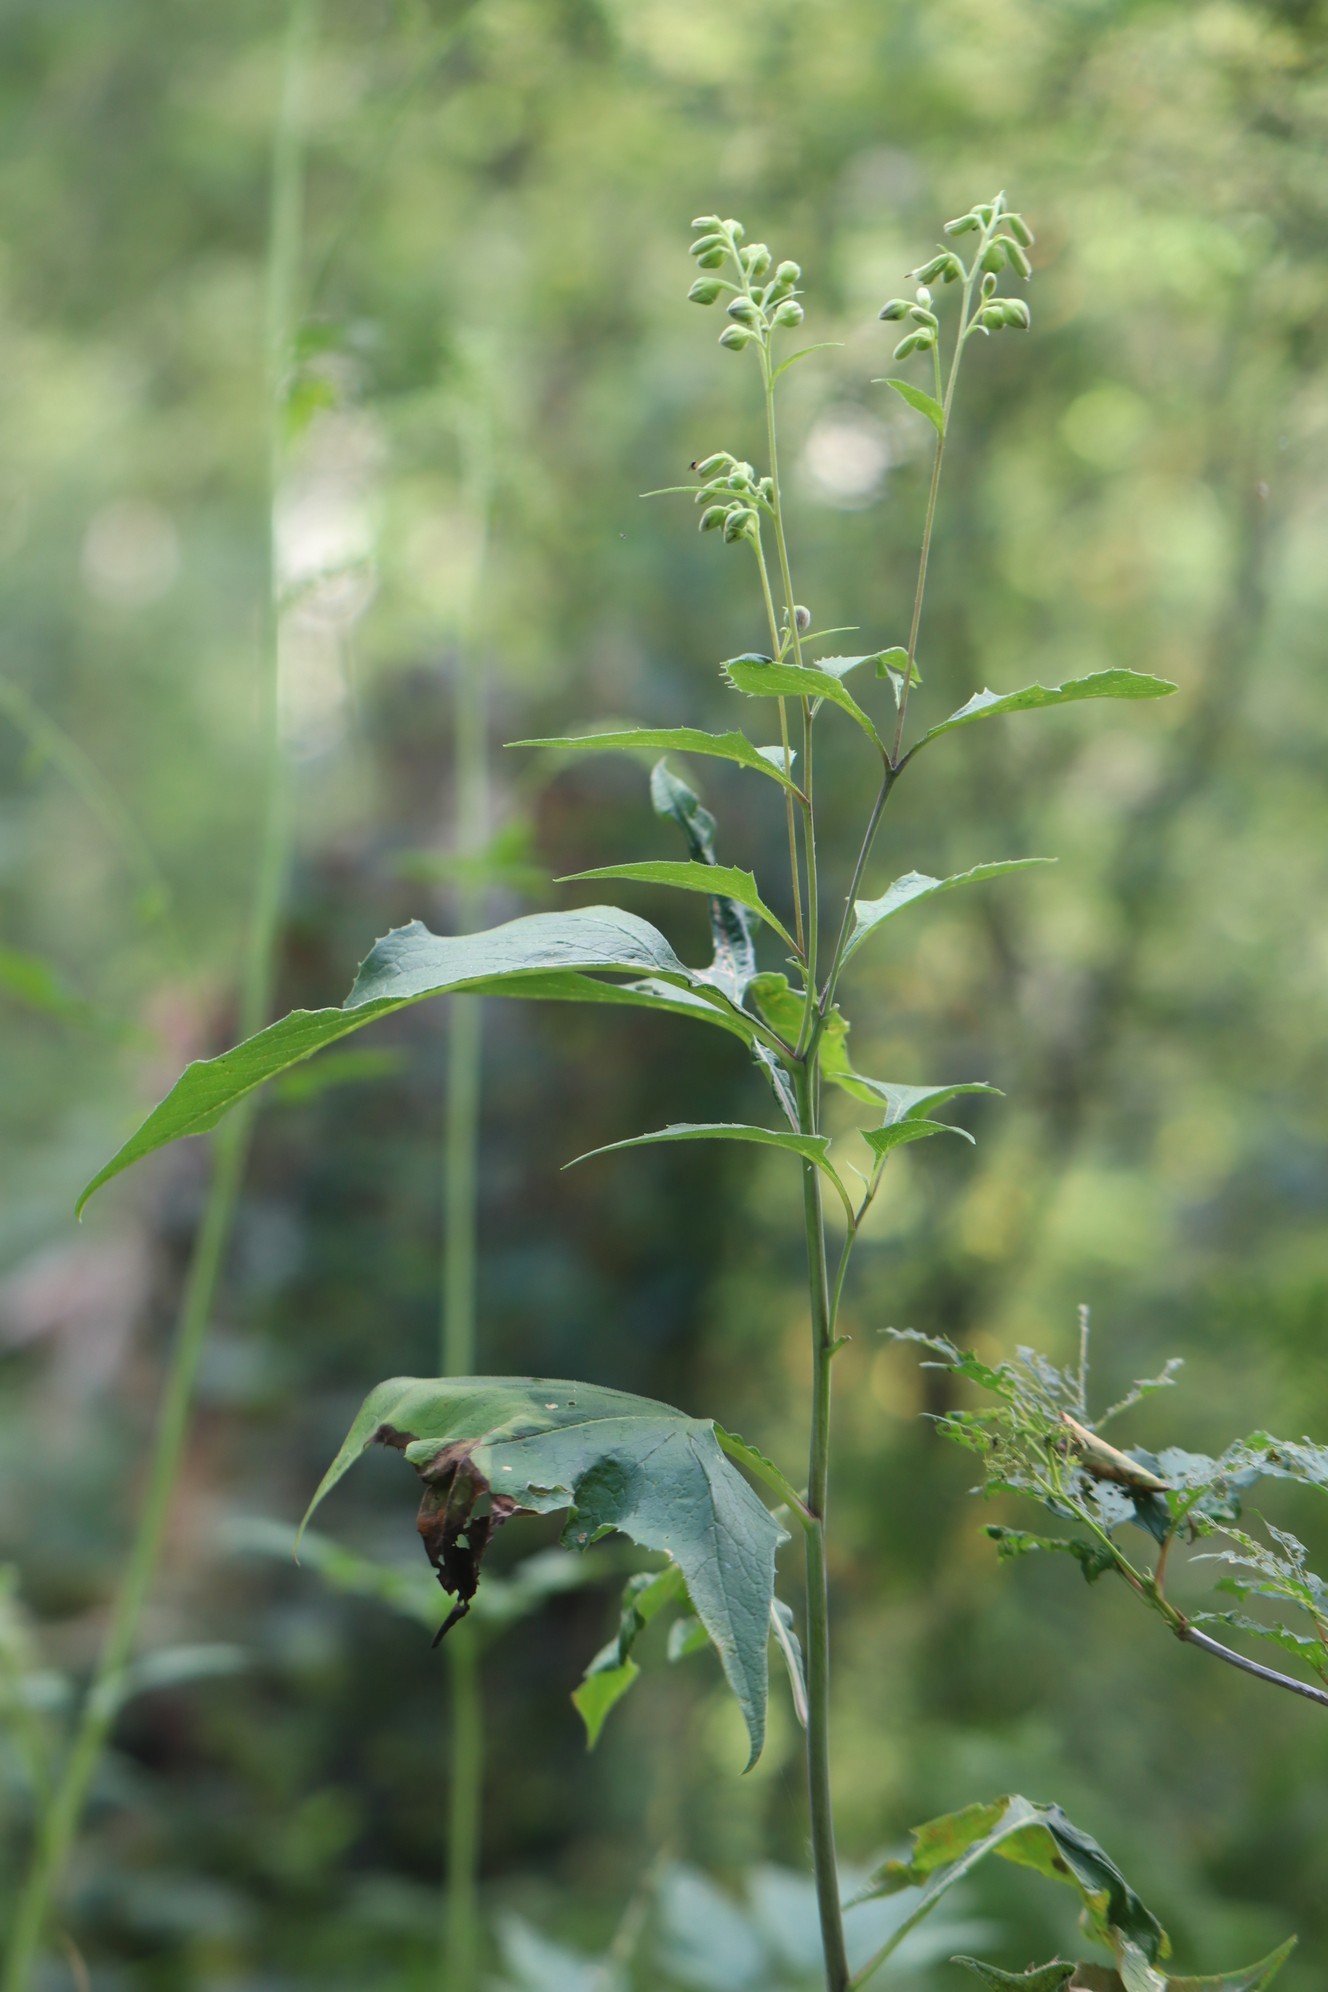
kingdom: Plantae
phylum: Tracheophyta
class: Magnoliopsida
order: Asterales
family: Asteraceae
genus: Parasenecio
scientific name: Parasenecio hastatus
